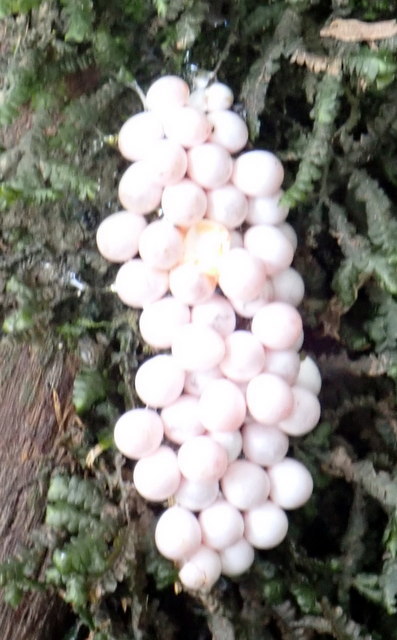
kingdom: Animalia
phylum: Mollusca
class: Gastropoda
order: Architaenioglossa
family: Ampullariidae
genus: Pomacea
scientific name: Pomacea paludosa
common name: Florida applesnail
